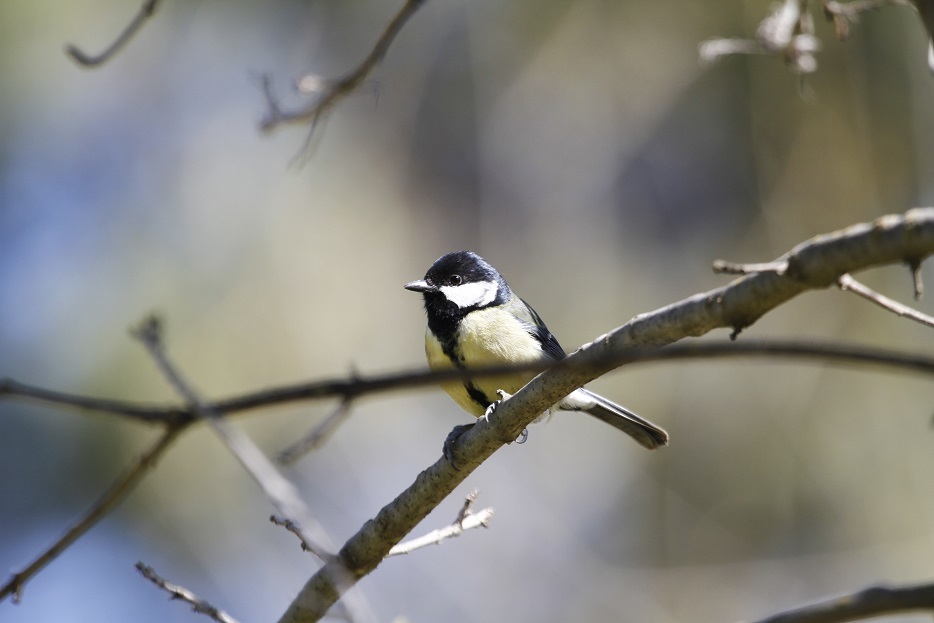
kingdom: Animalia
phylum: Chordata
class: Aves
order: Passeriformes
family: Paridae
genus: Parus
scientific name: Parus major
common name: Great tit
